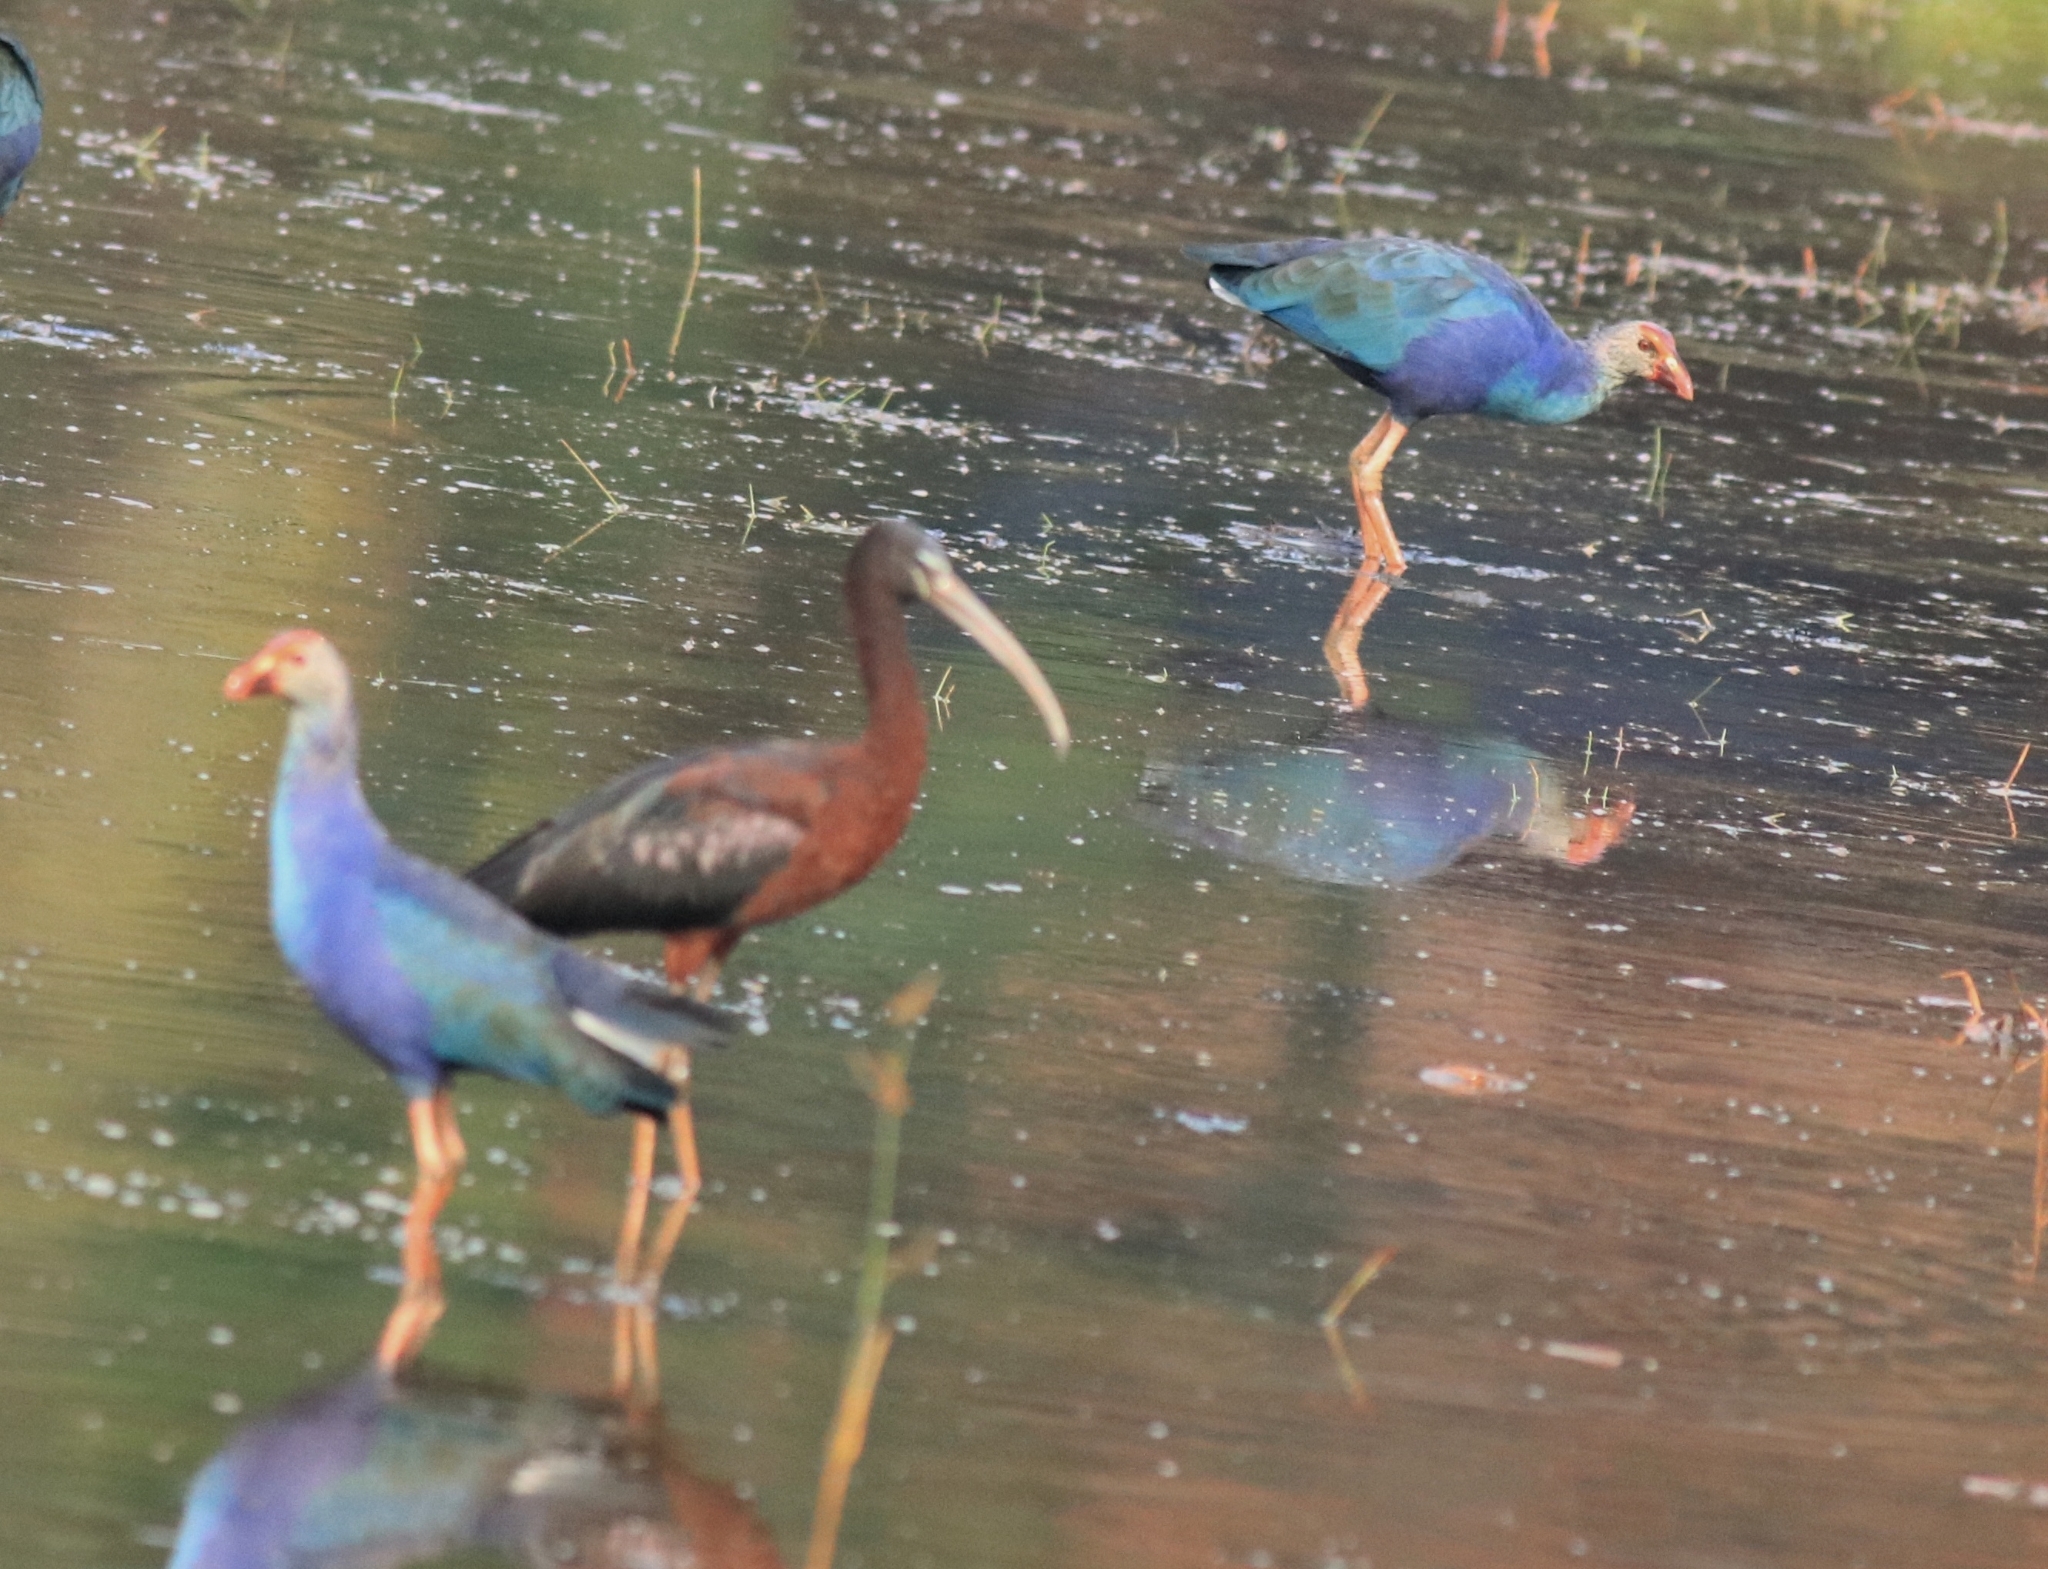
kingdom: Animalia
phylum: Chordata
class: Aves
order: Pelecaniformes
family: Threskiornithidae
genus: Plegadis
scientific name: Plegadis falcinellus
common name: Glossy ibis
